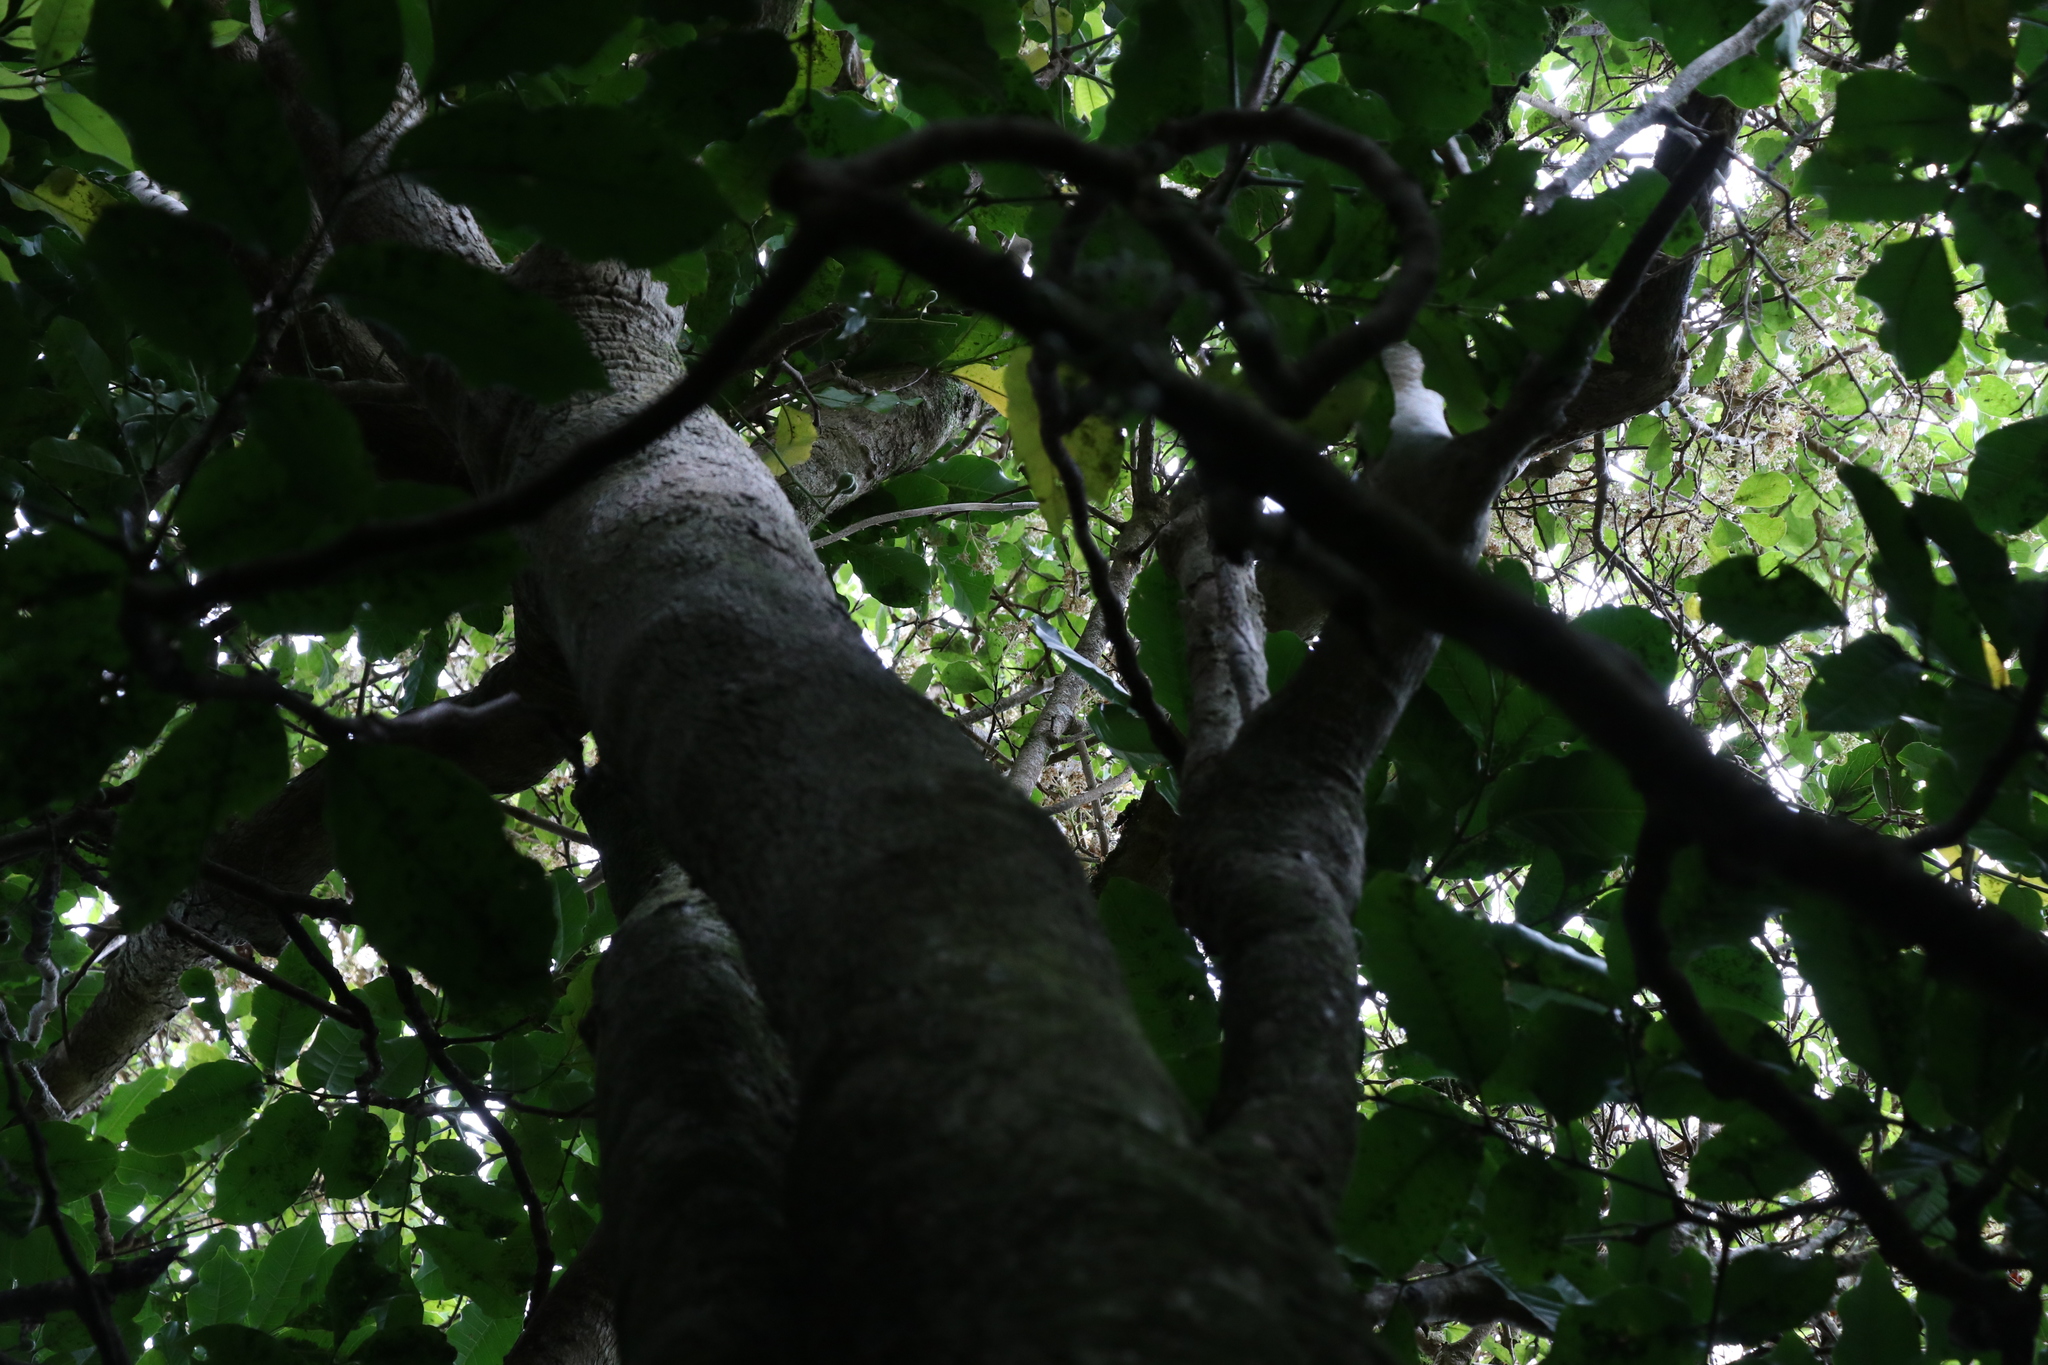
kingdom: Plantae
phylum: Tracheophyta
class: Magnoliopsida
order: Apiales
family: Pennantiaceae
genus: Pennantia
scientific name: Pennantia corymbosa
